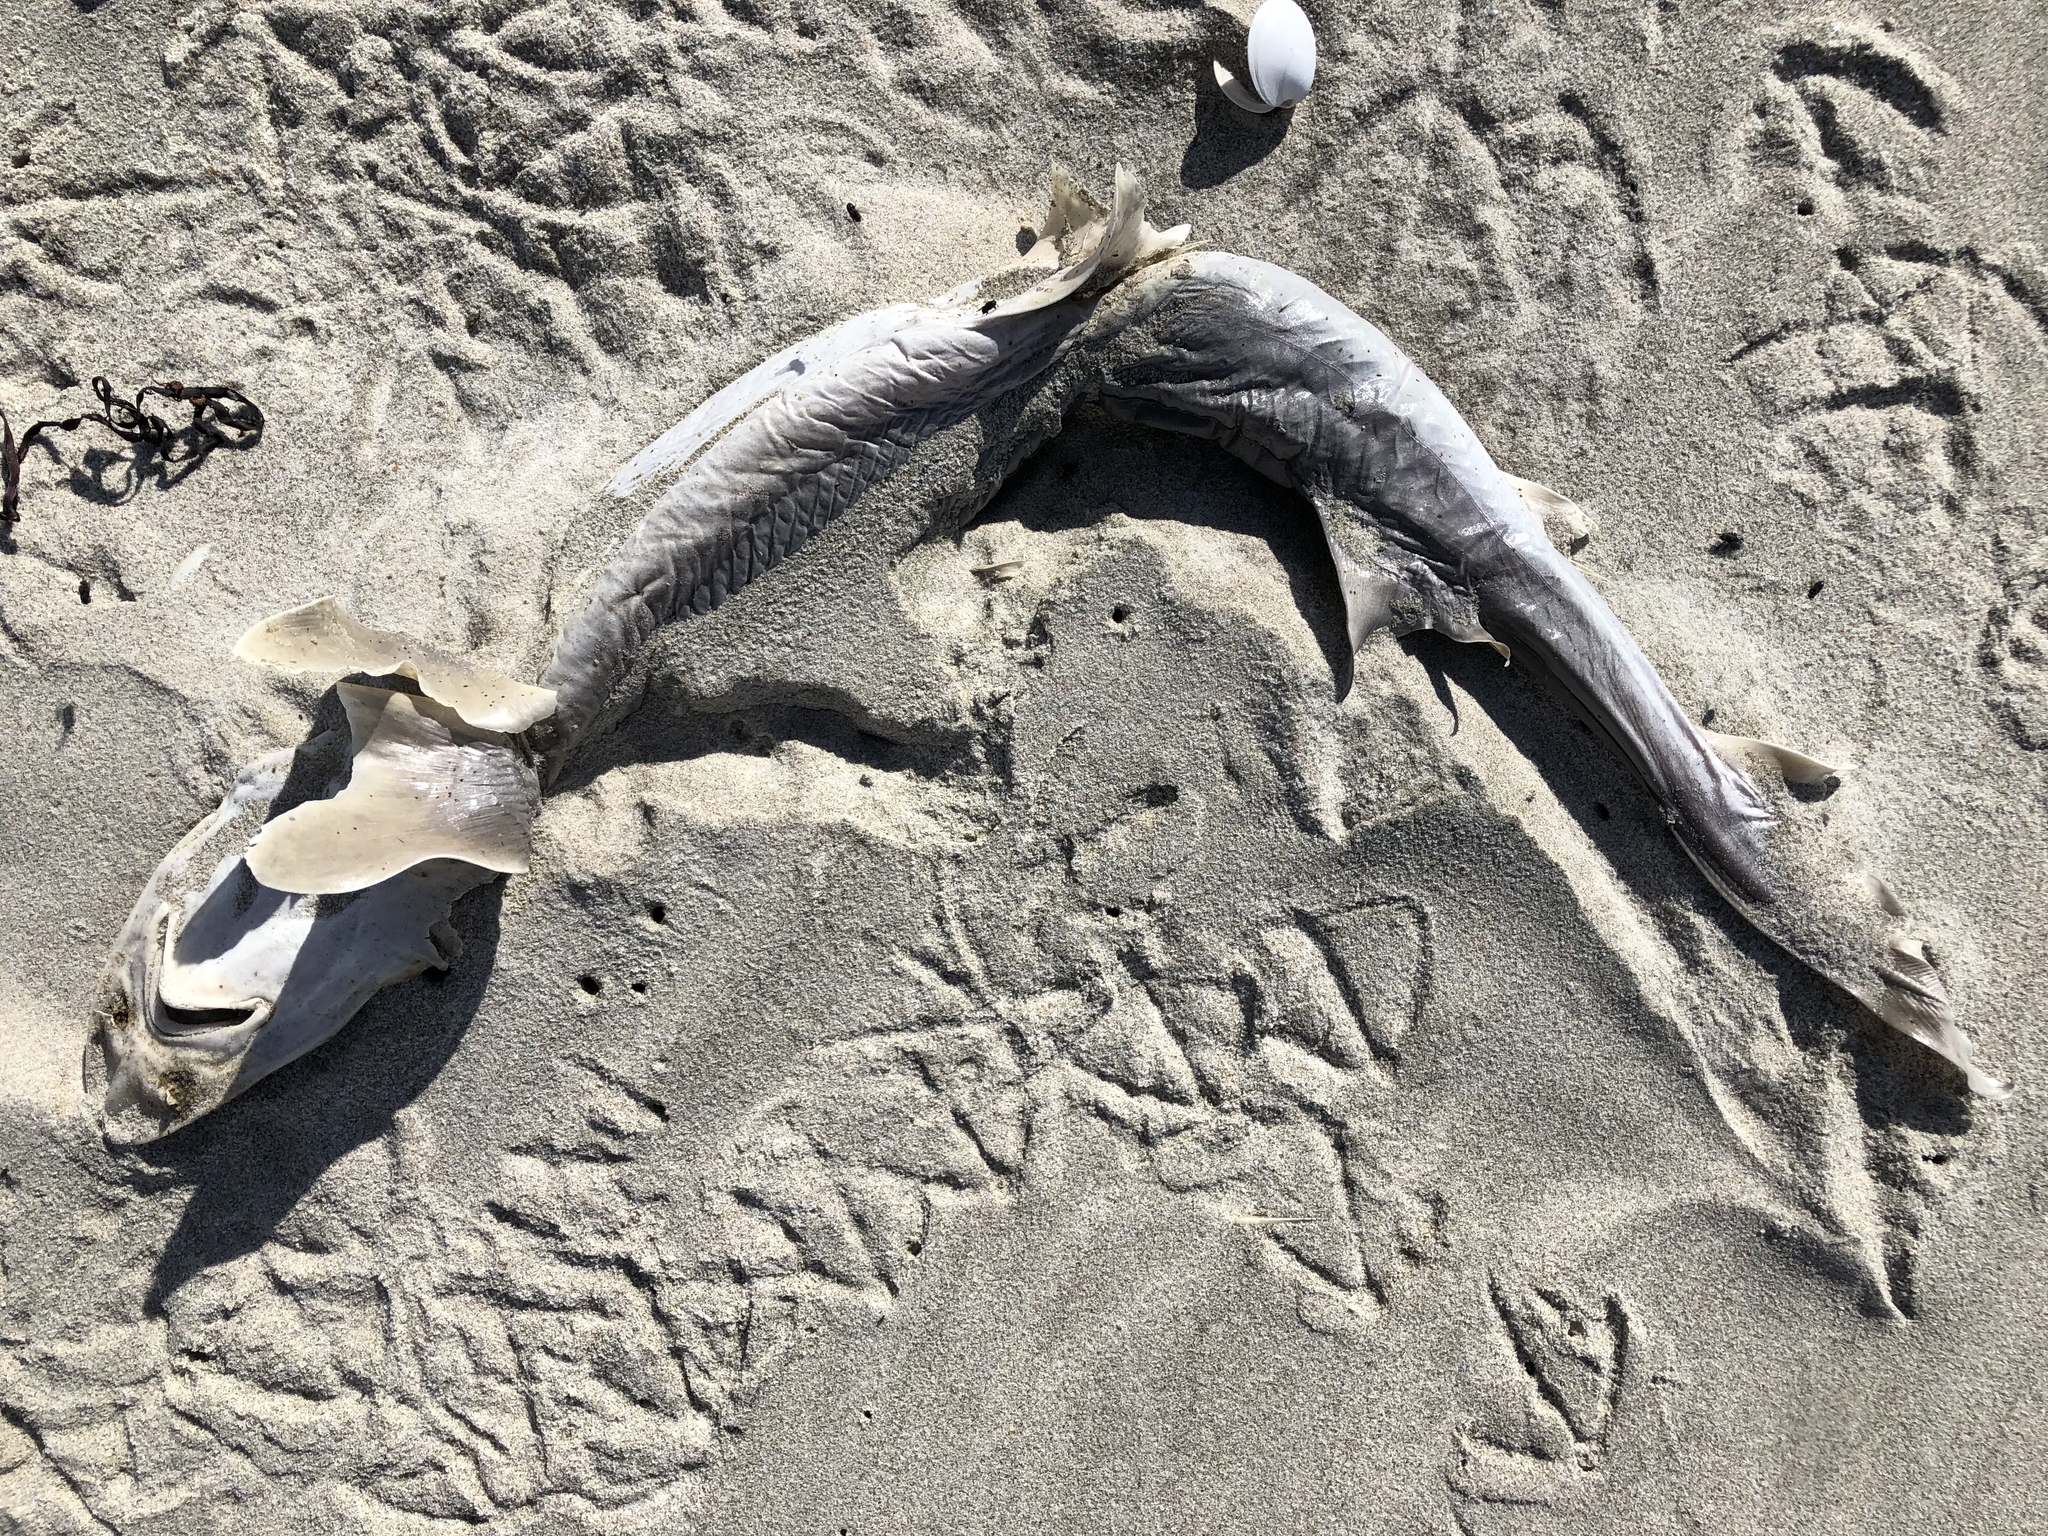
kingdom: Animalia
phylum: Chordata
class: Elasmobranchii
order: Carcharhiniformes
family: Triakidae
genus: Mustelus
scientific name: Mustelus lenticulatus
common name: Gummy shark
